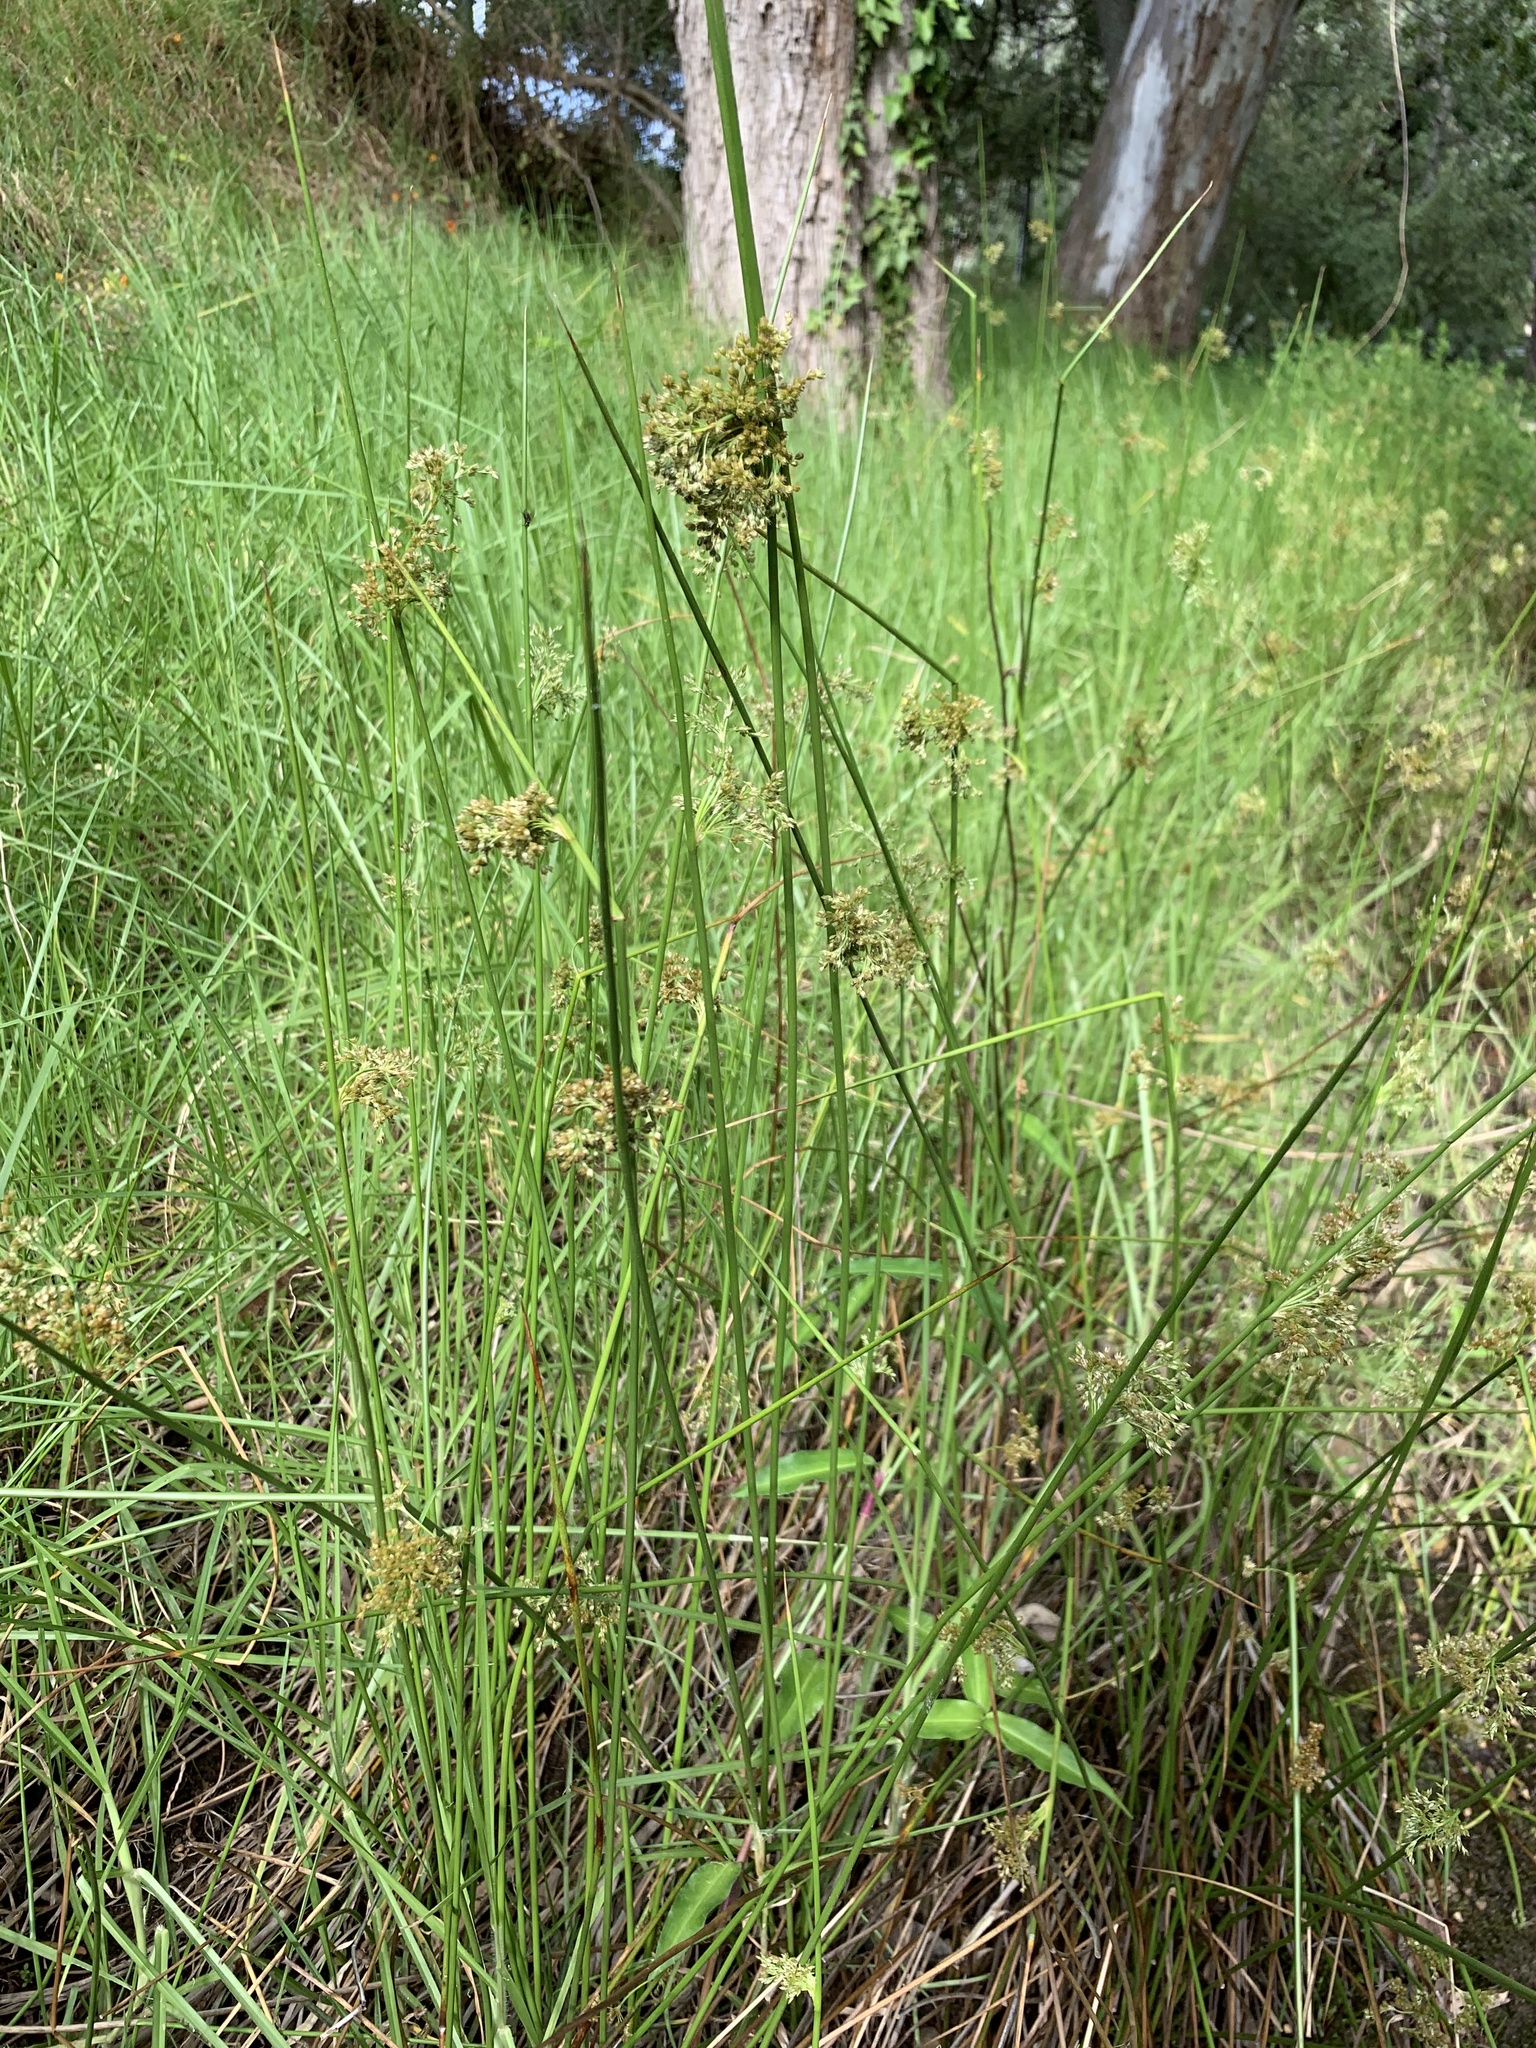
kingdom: Plantae
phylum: Tracheophyta
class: Liliopsida
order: Poales
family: Juncaceae
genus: Juncus
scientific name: Juncus effusus
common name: Soft rush
